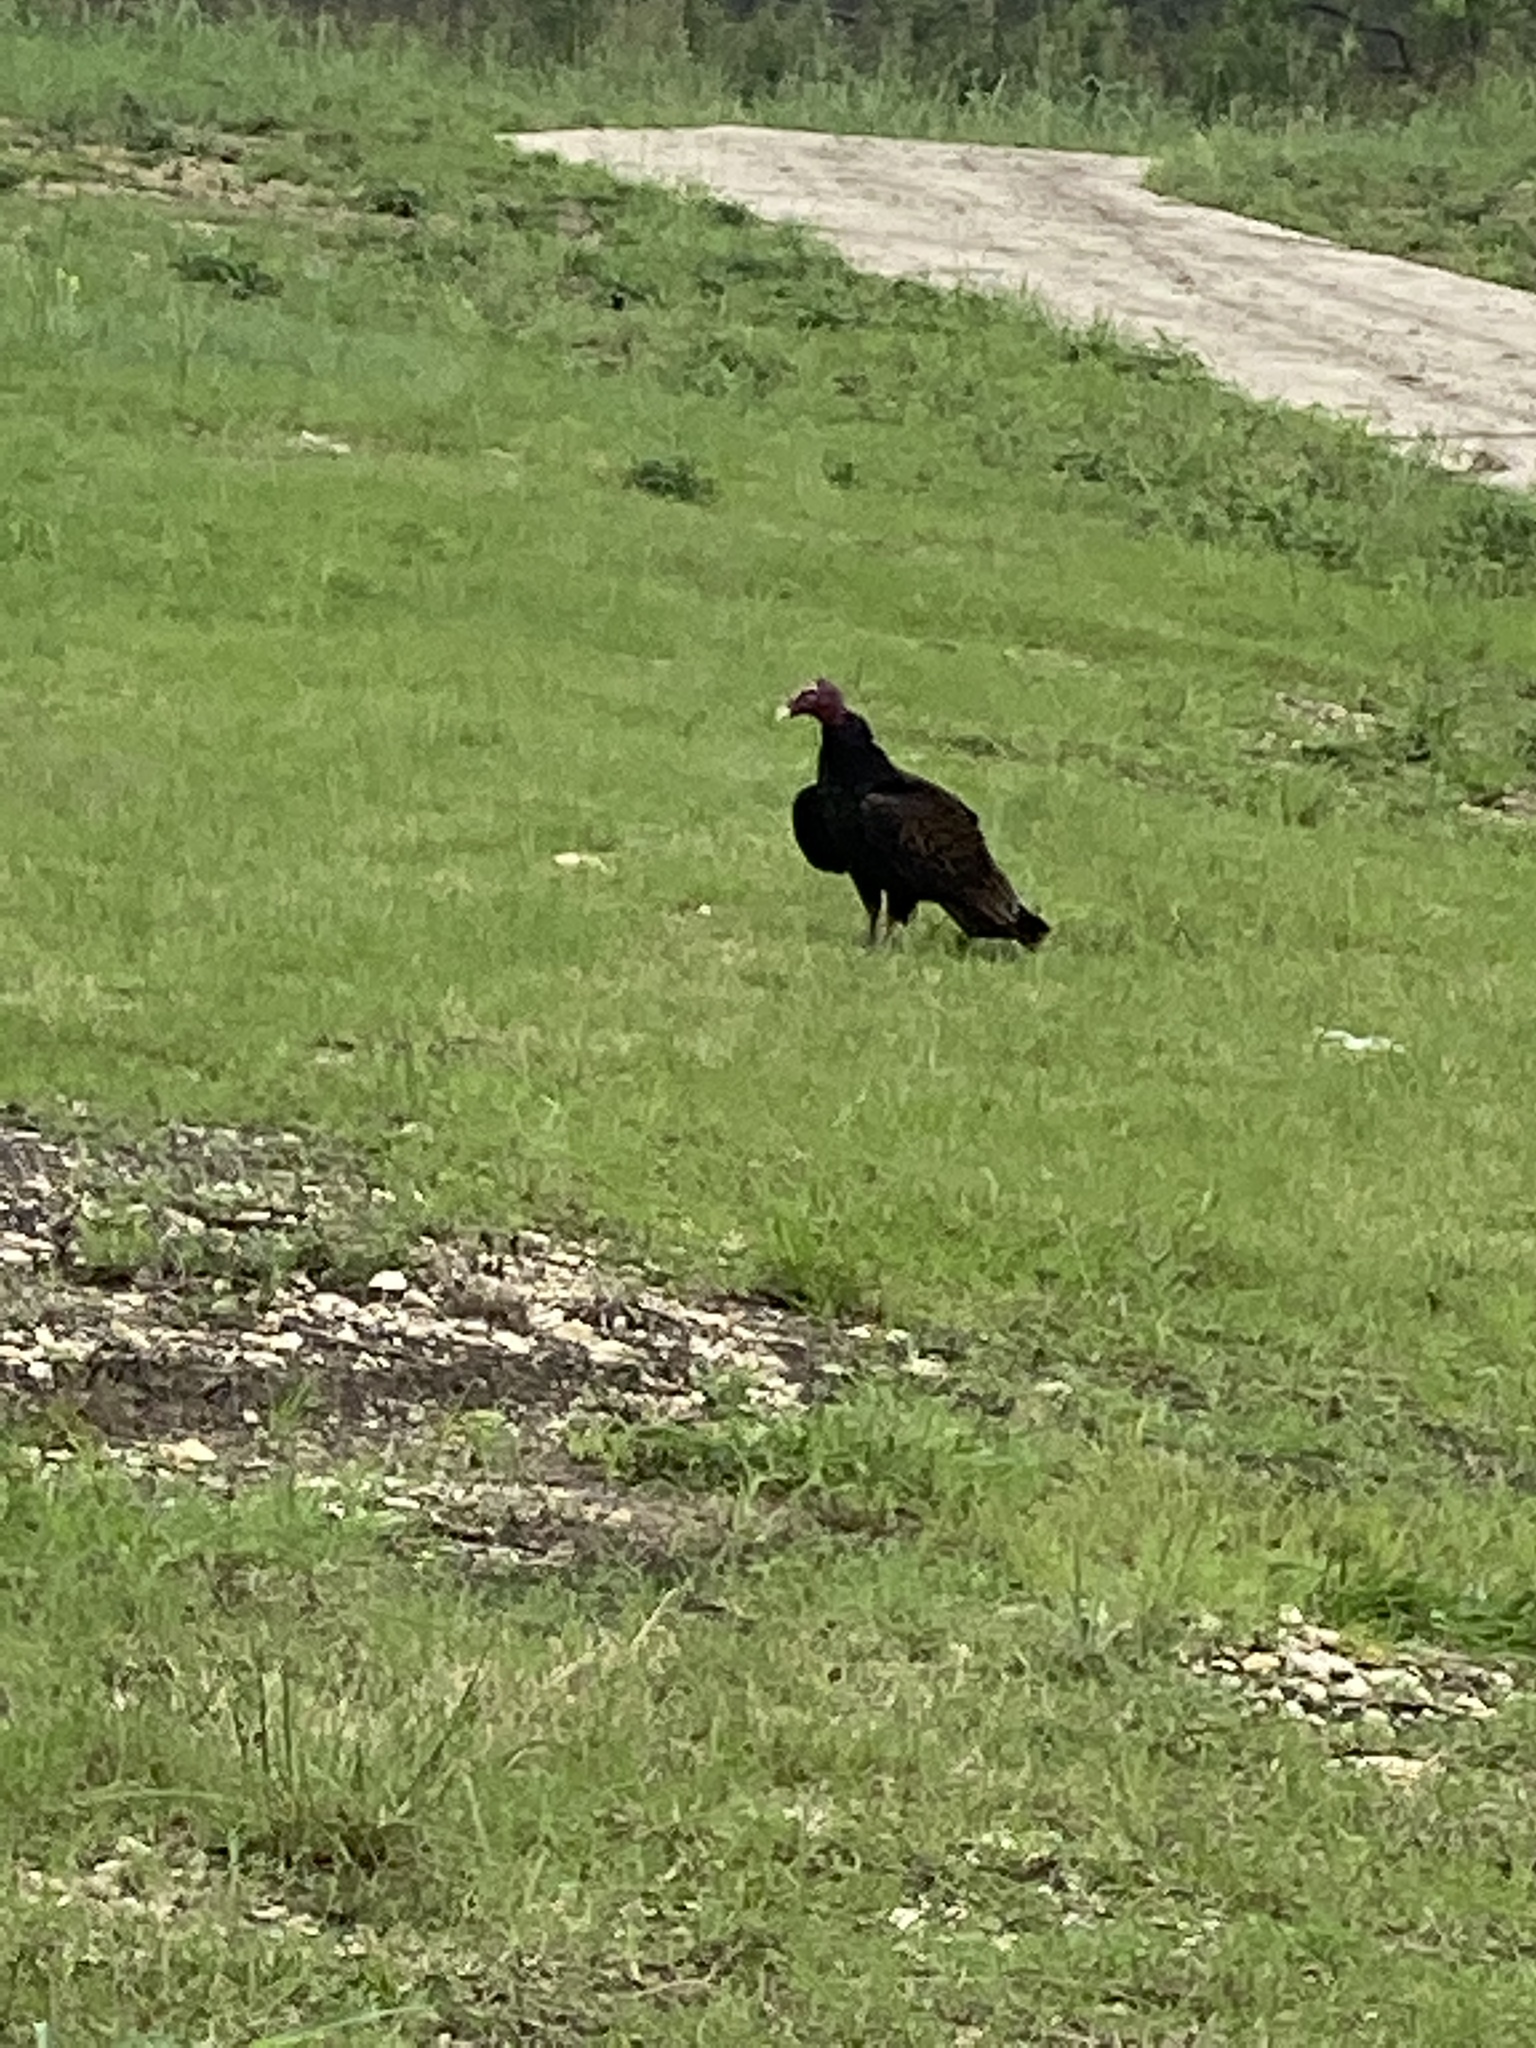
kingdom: Animalia
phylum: Chordata
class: Aves
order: Accipitriformes
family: Cathartidae
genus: Cathartes
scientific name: Cathartes aura
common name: Turkey vulture
